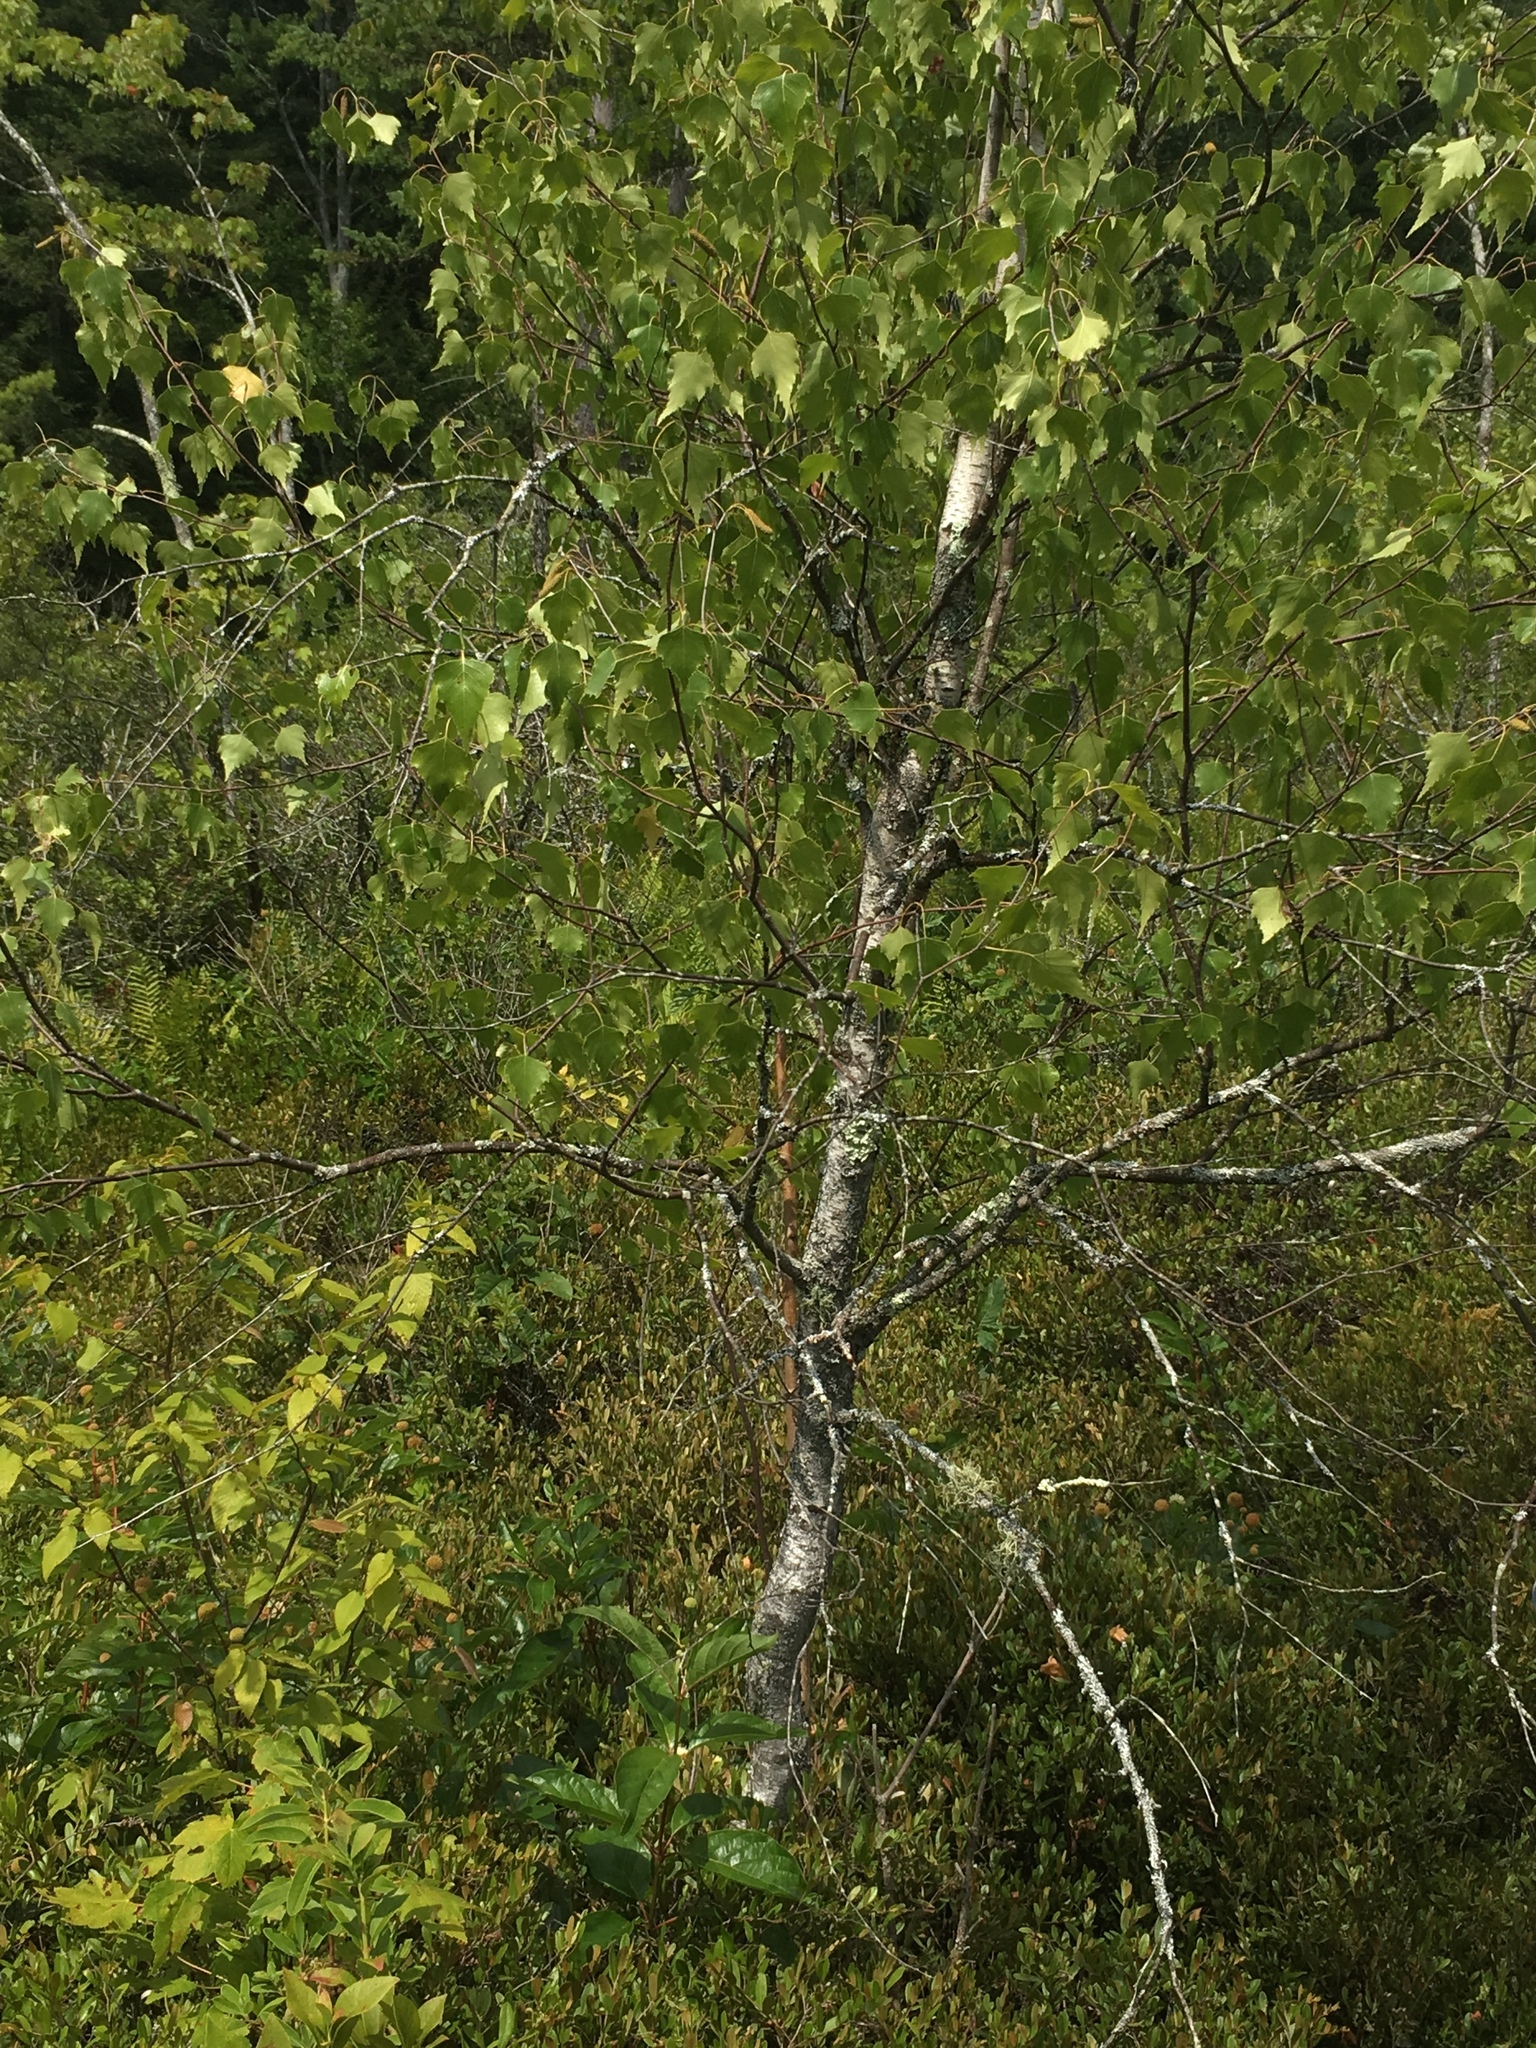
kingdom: Plantae
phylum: Tracheophyta
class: Magnoliopsida
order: Fagales
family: Betulaceae
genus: Betula
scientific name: Betula populifolia
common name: Fire birch
